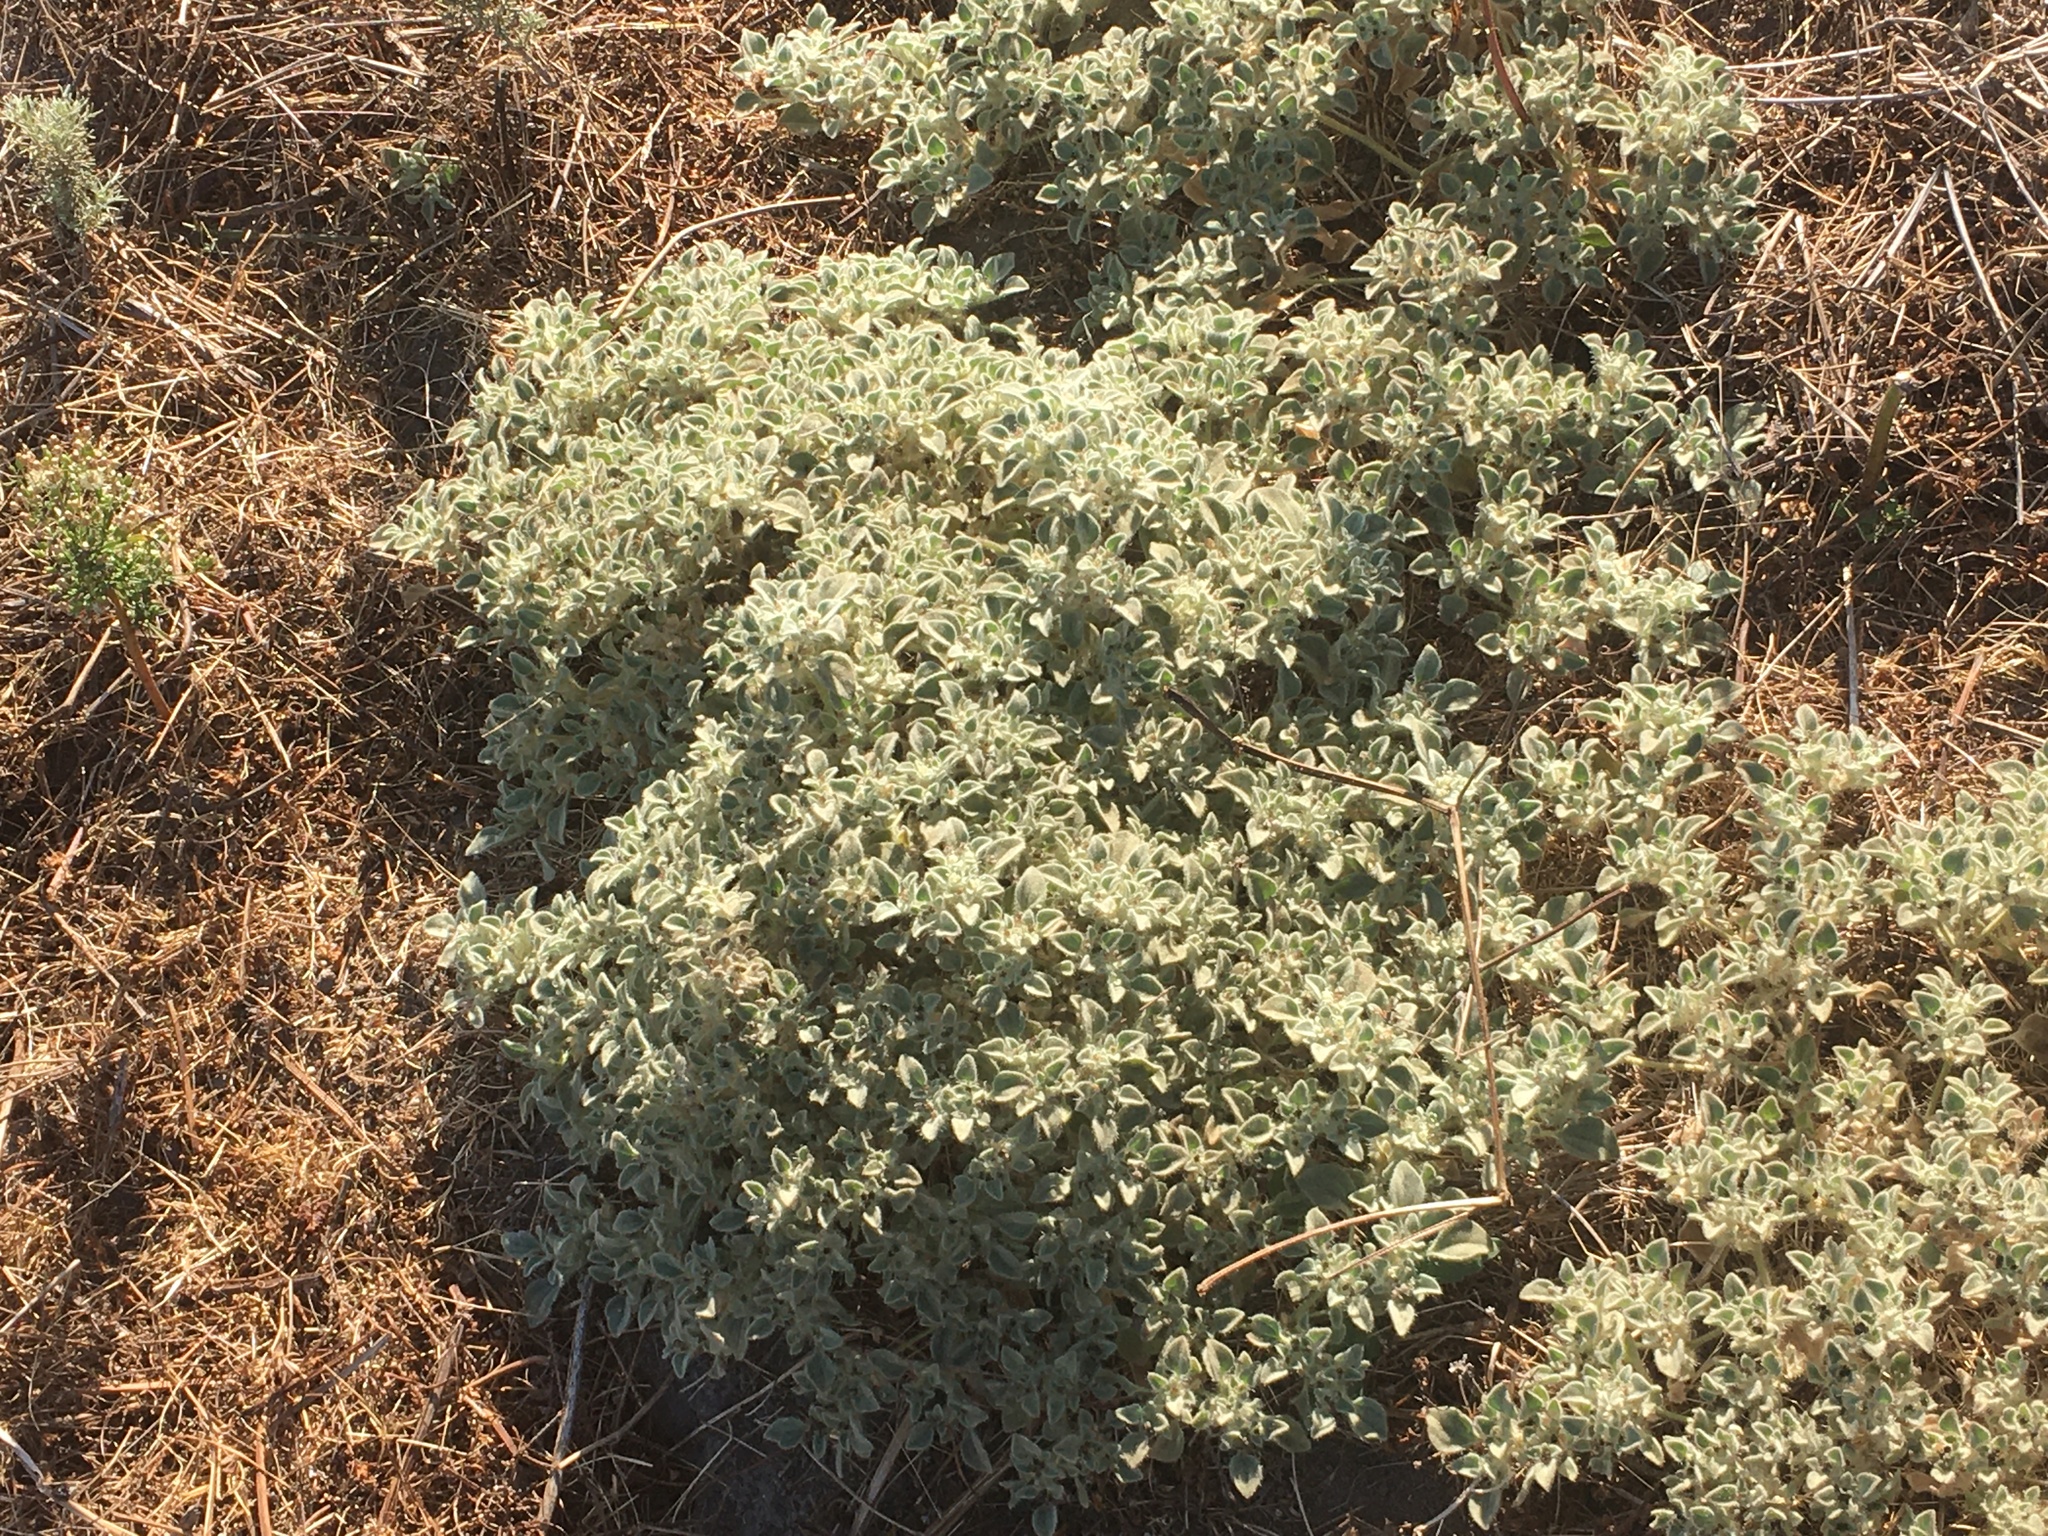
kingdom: Plantae
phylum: Tracheophyta
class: Magnoliopsida
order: Malpighiales
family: Euphorbiaceae
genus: Croton
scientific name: Croton setiger
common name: Dove weed
